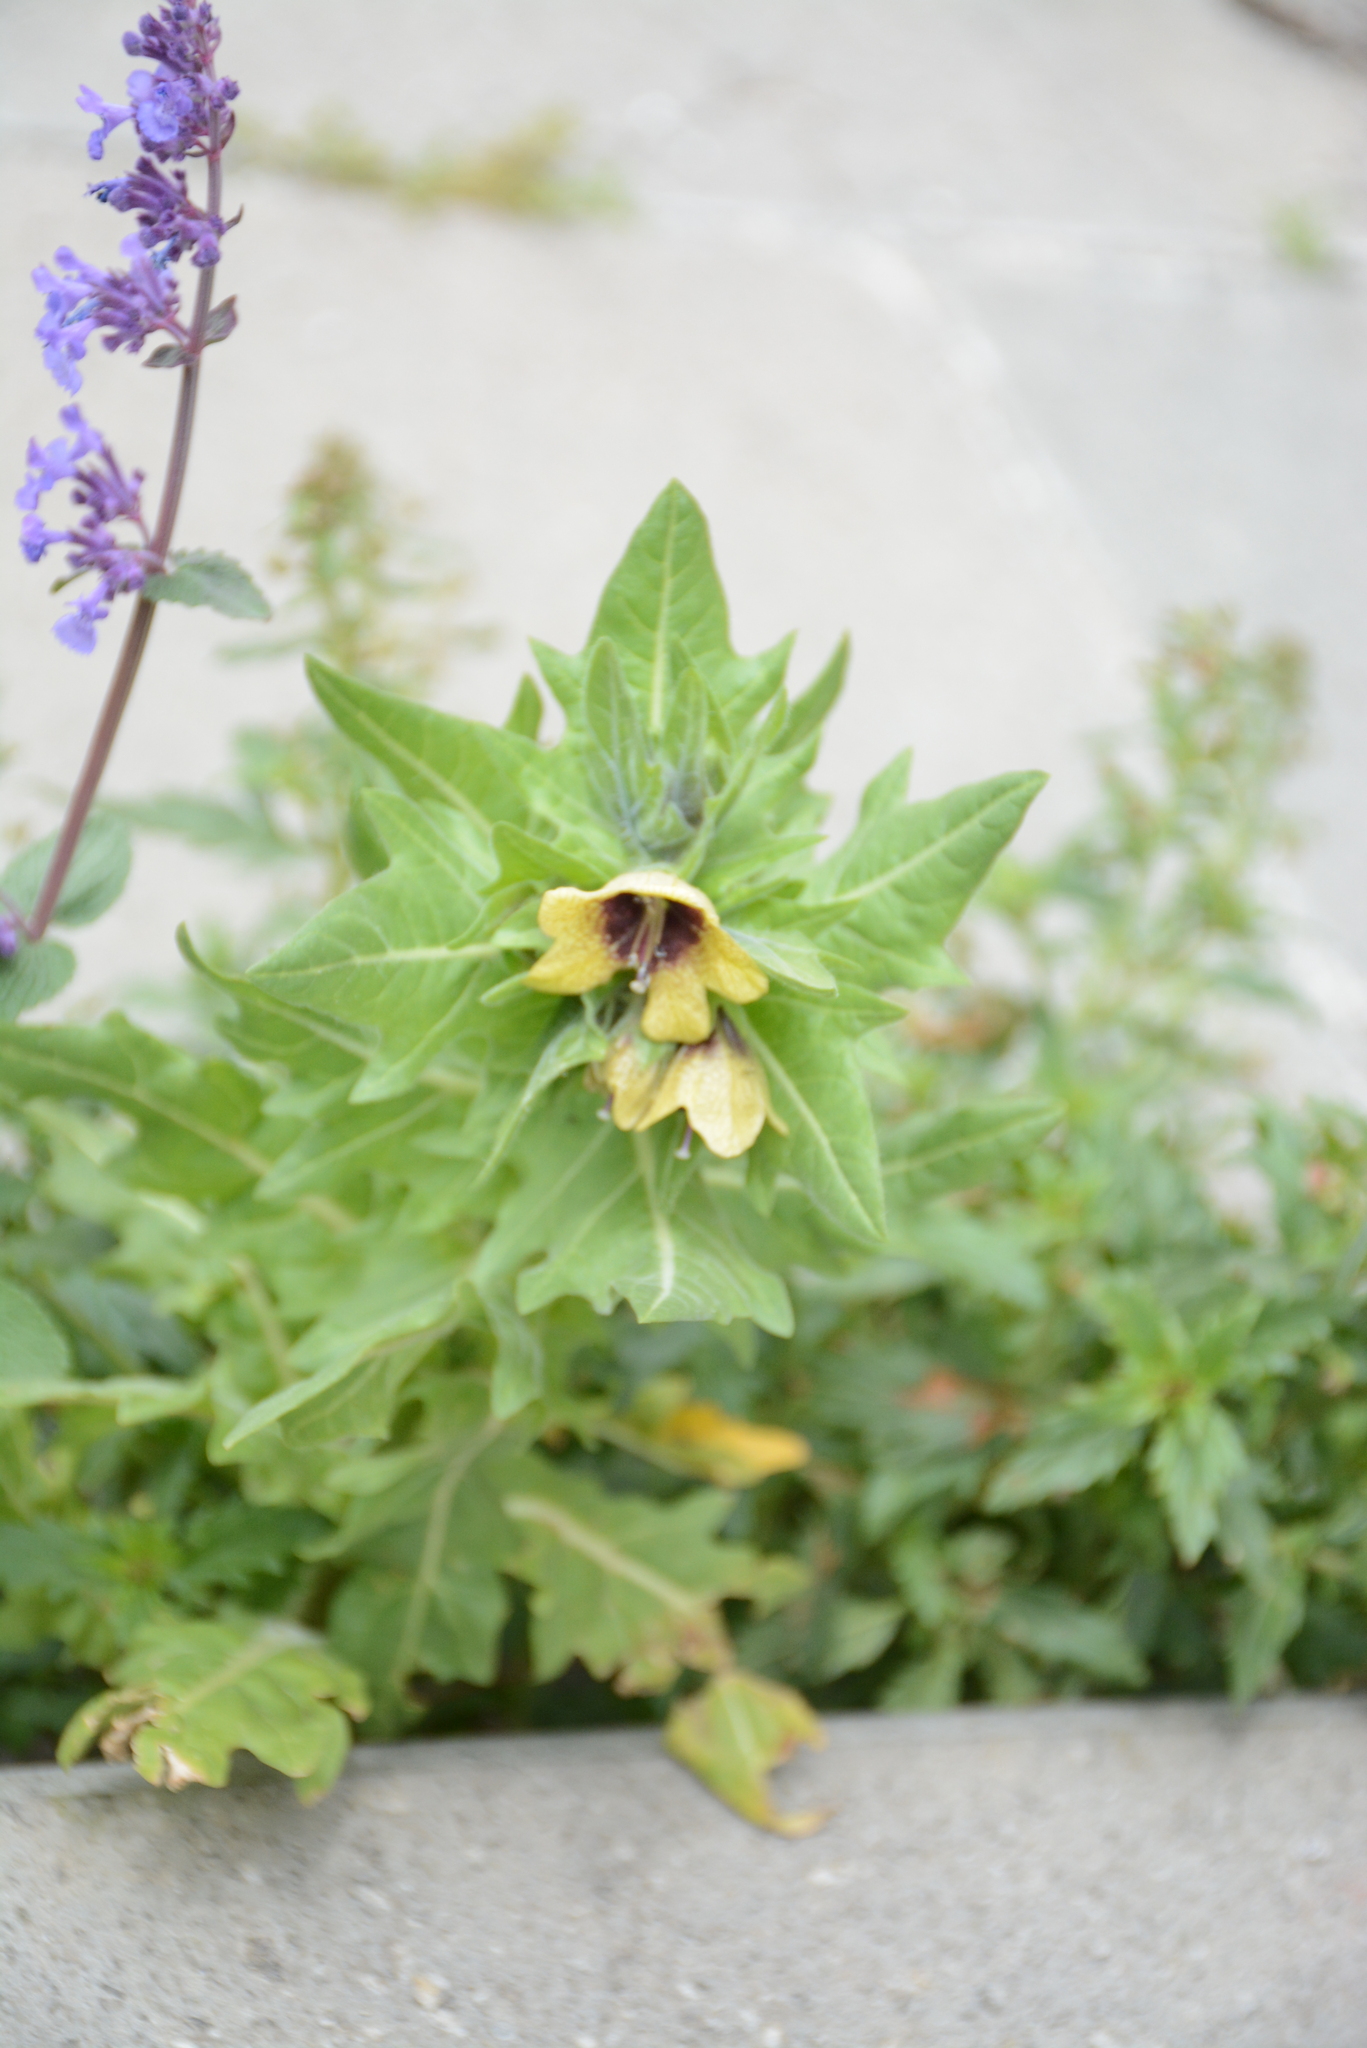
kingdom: Plantae
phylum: Tracheophyta
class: Magnoliopsida
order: Solanales
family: Solanaceae
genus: Hyoscyamus
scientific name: Hyoscyamus niger
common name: Henbane
